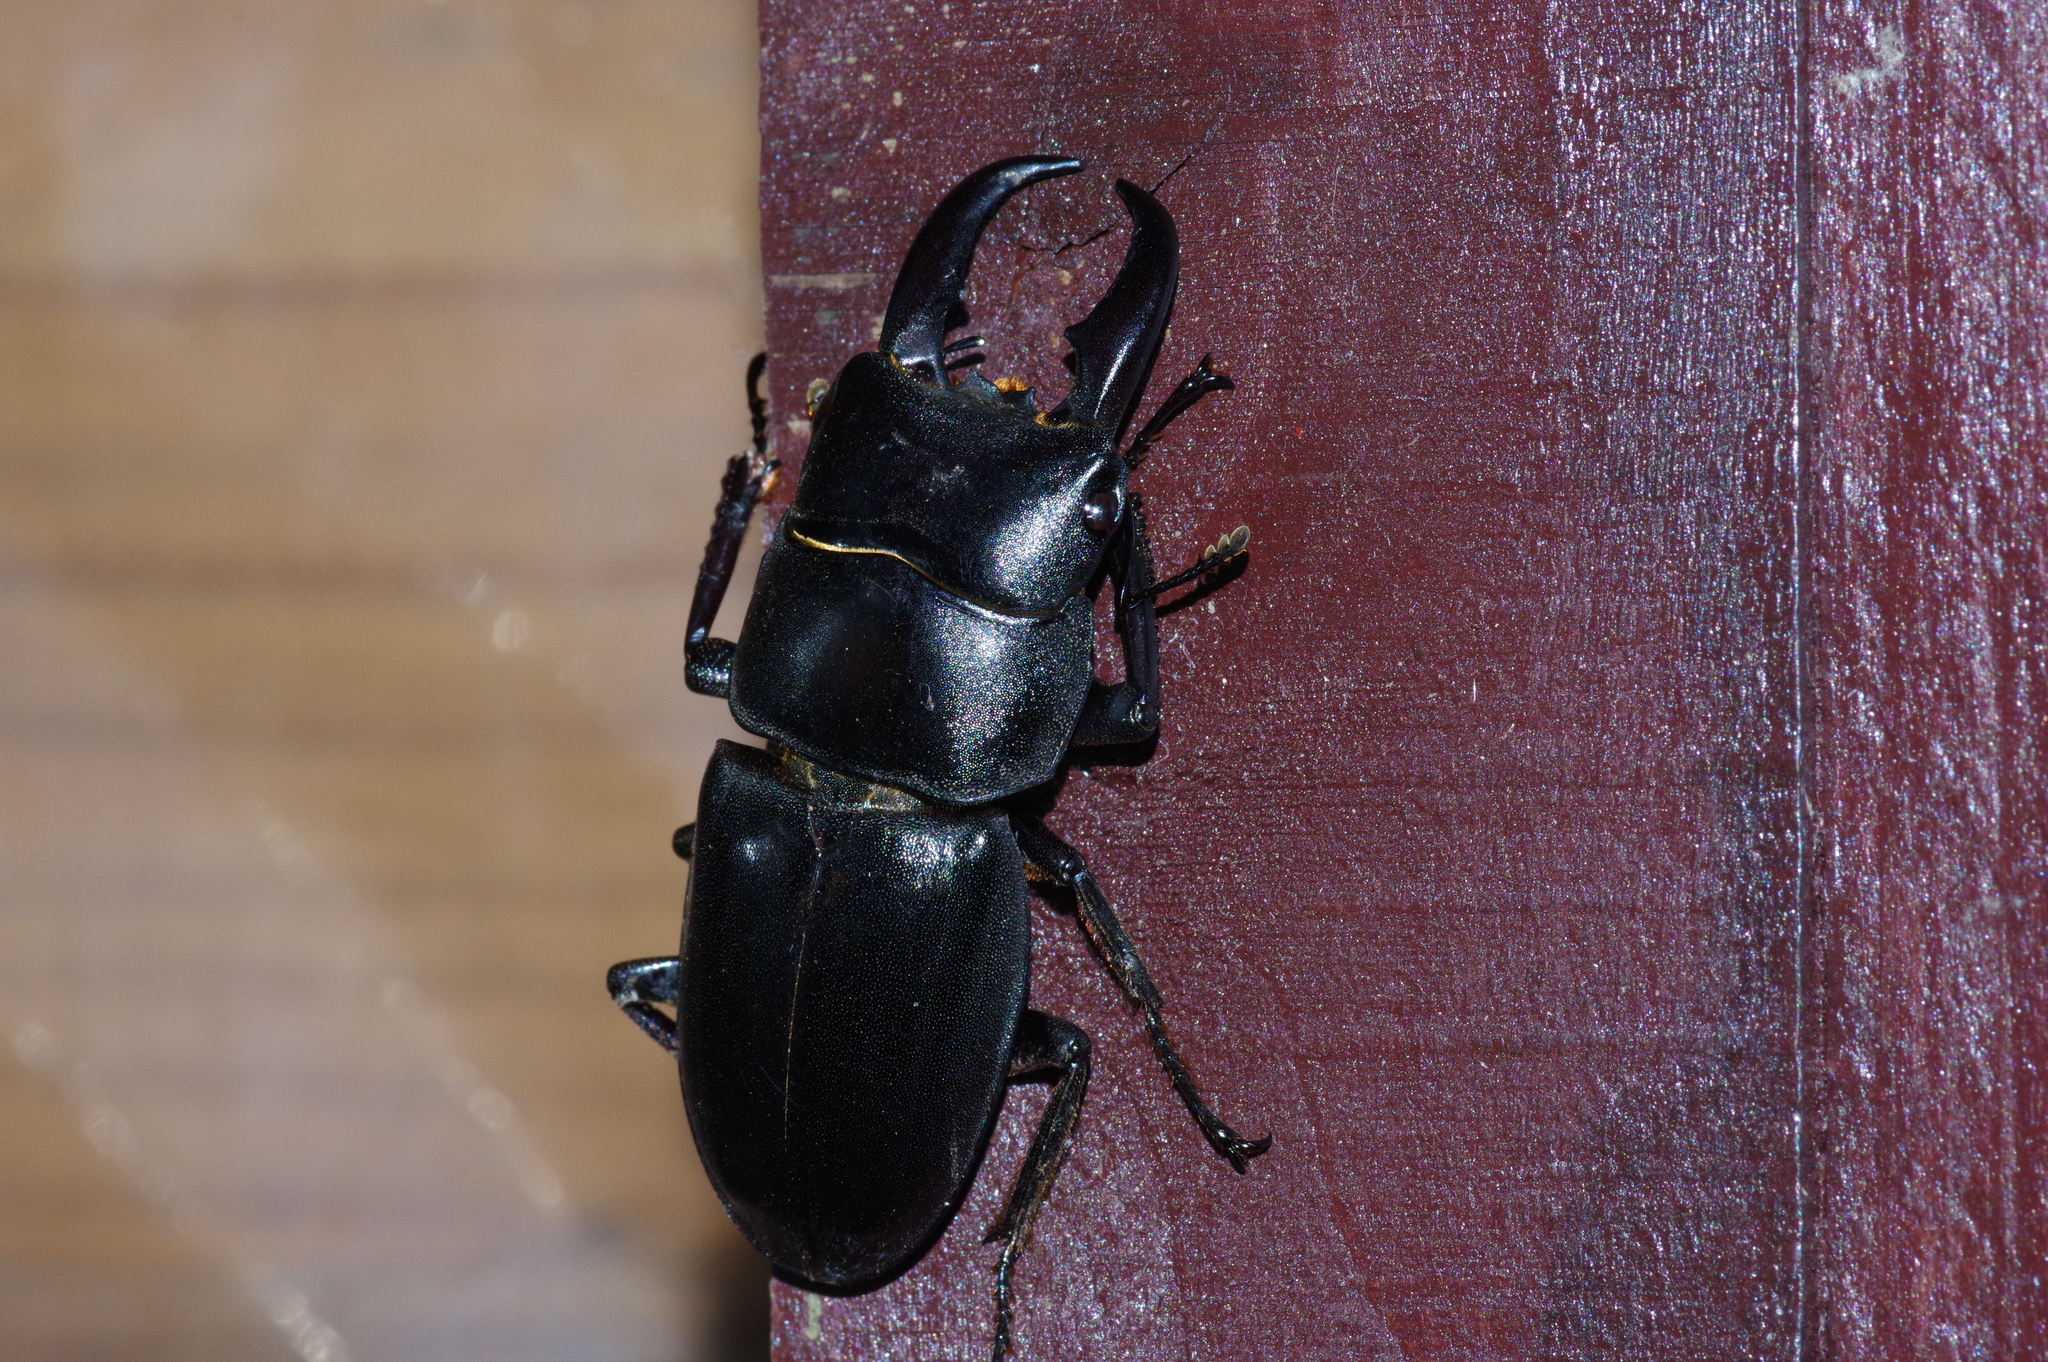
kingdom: Animalia
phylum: Arthropoda
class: Insecta
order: Coleoptera
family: Lucanidae
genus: Serrognathus
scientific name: Serrognathus titanus
